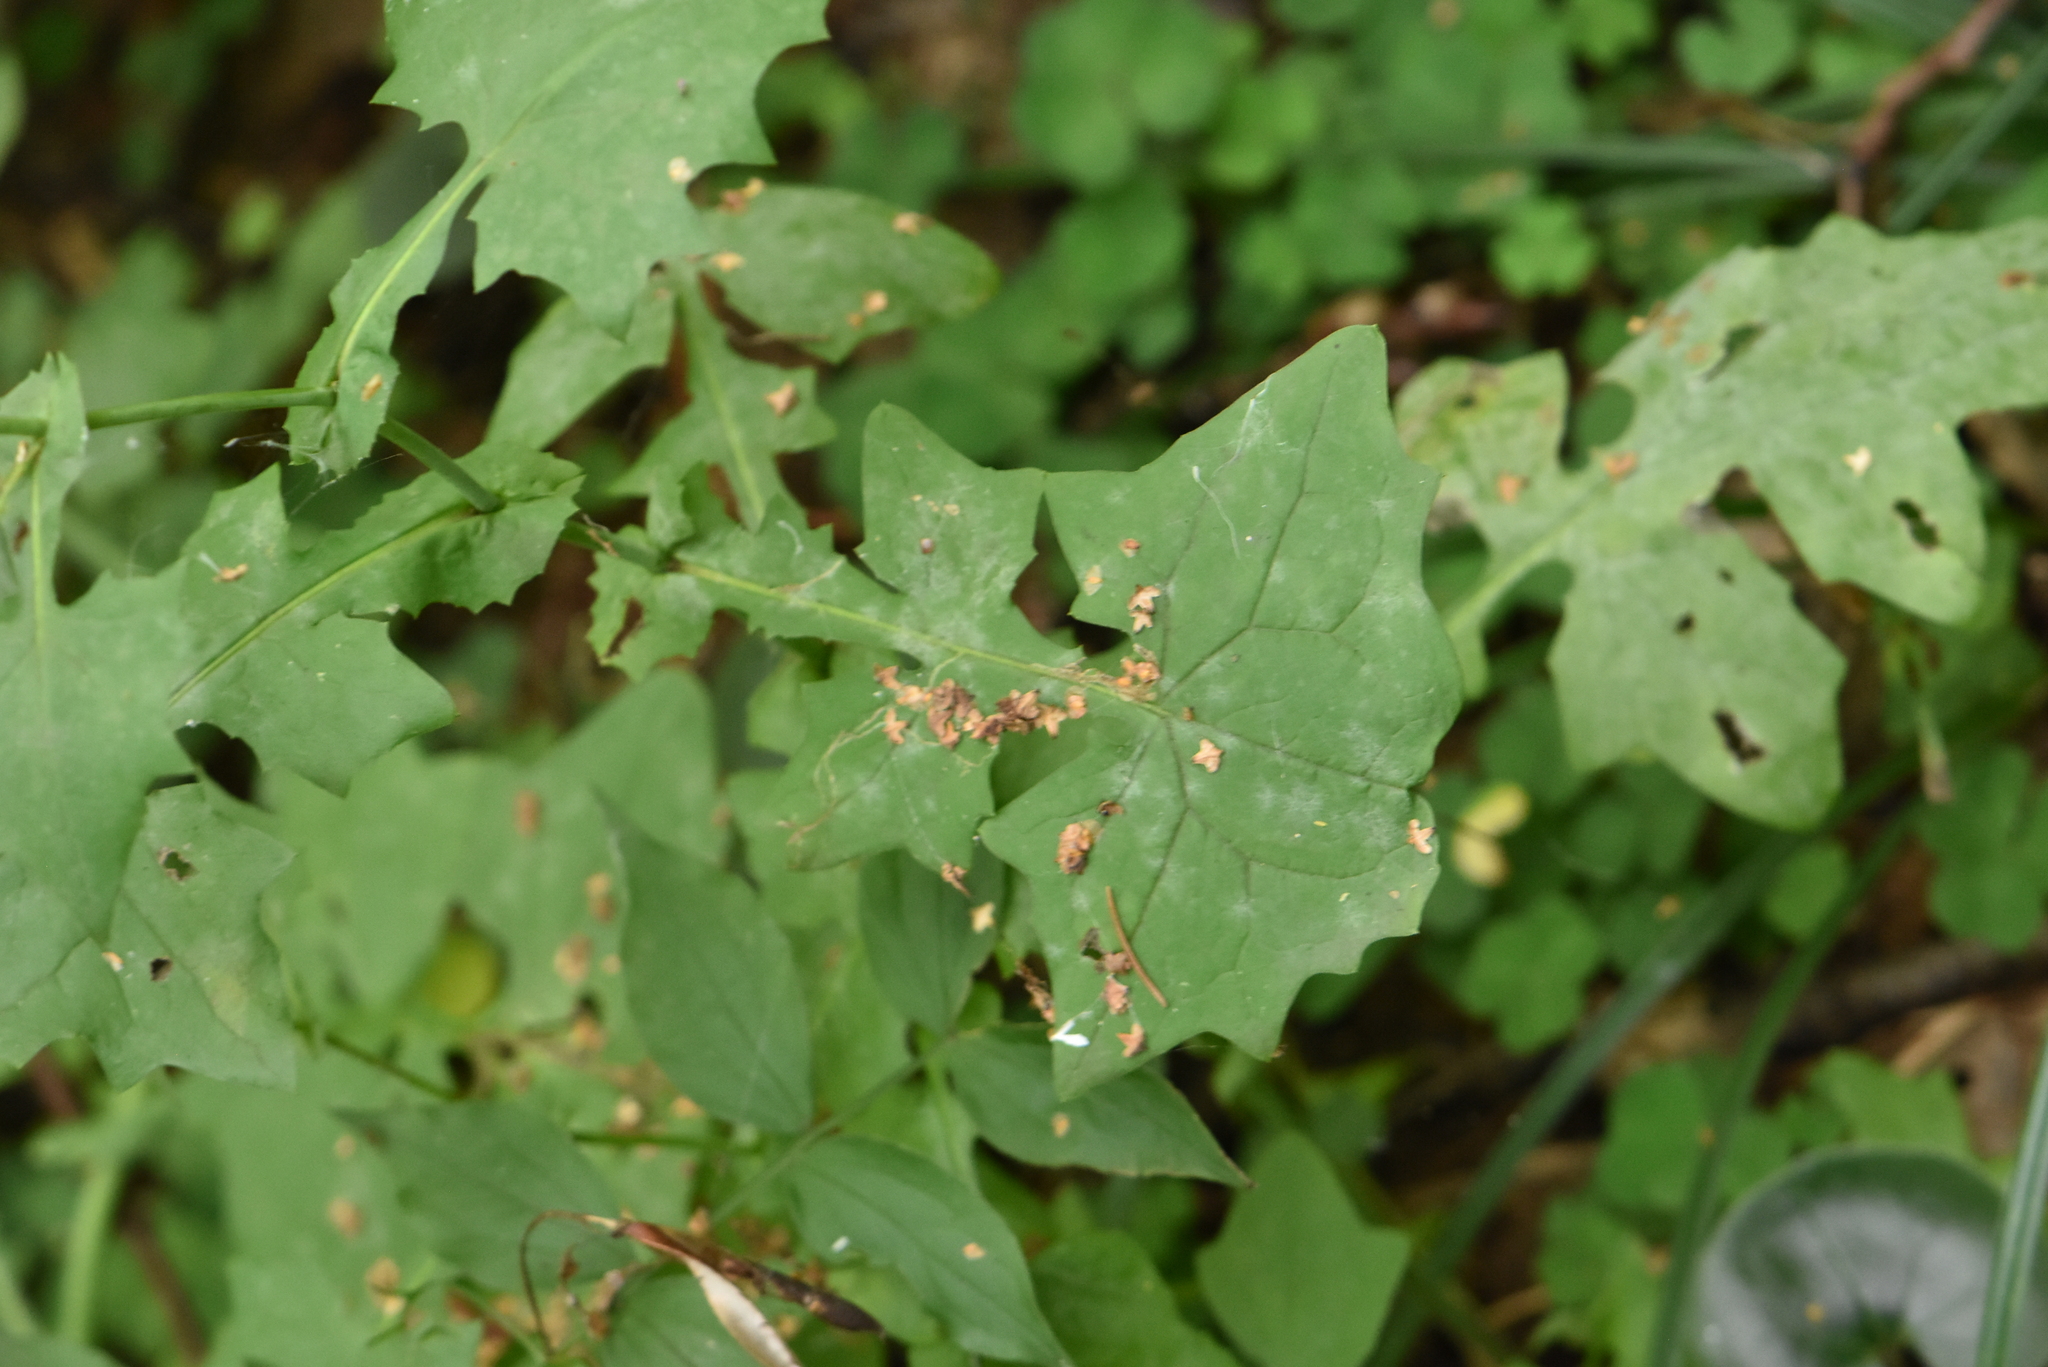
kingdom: Plantae
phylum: Tracheophyta
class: Magnoliopsida
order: Asterales
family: Asteraceae
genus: Mycelis
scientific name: Mycelis muralis
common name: Wall lettuce
